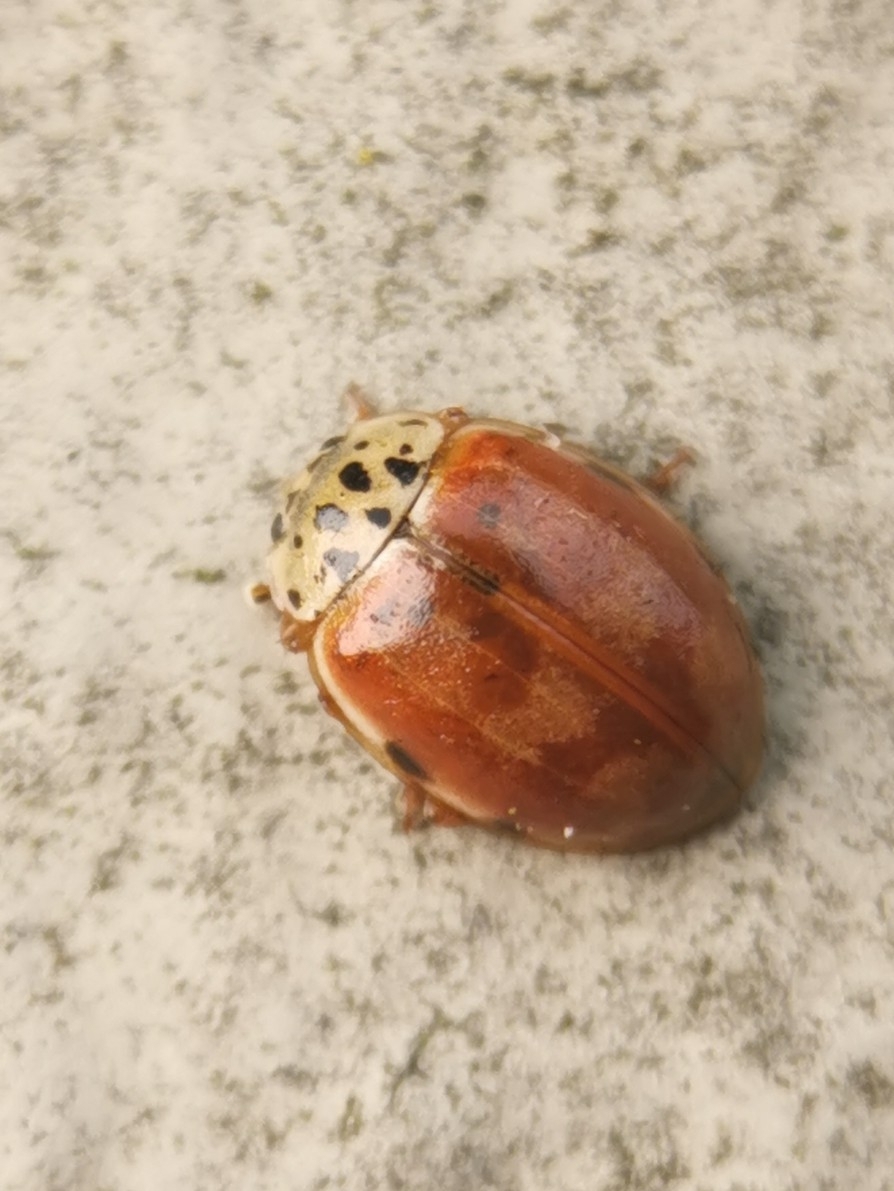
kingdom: Animalia
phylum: Arthropoda
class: Insecta
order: Coleoptera
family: Coccinellidae
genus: Harmonia
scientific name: Harmonia quadripunctata
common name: Cream-streaked ladybird
